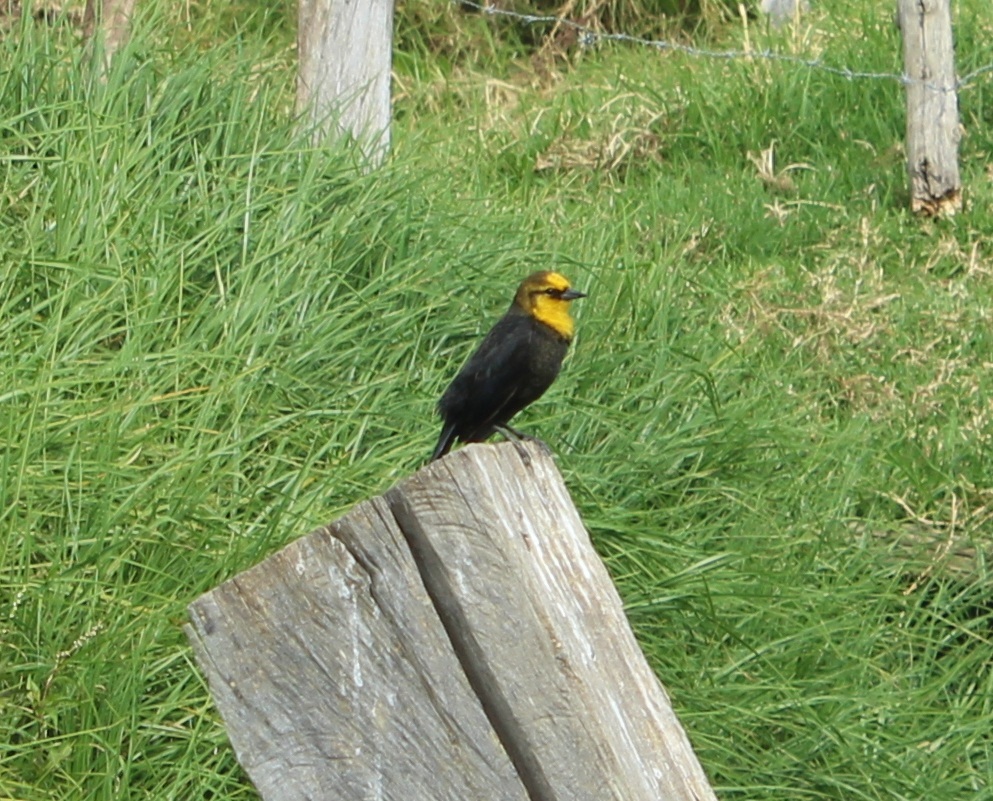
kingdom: Animalia
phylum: Chordata
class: Aves
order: Passeriformes
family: Icteridae
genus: Chrysomus
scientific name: Chrysomus icterocephalus
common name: Yellow-hooded blackbird
